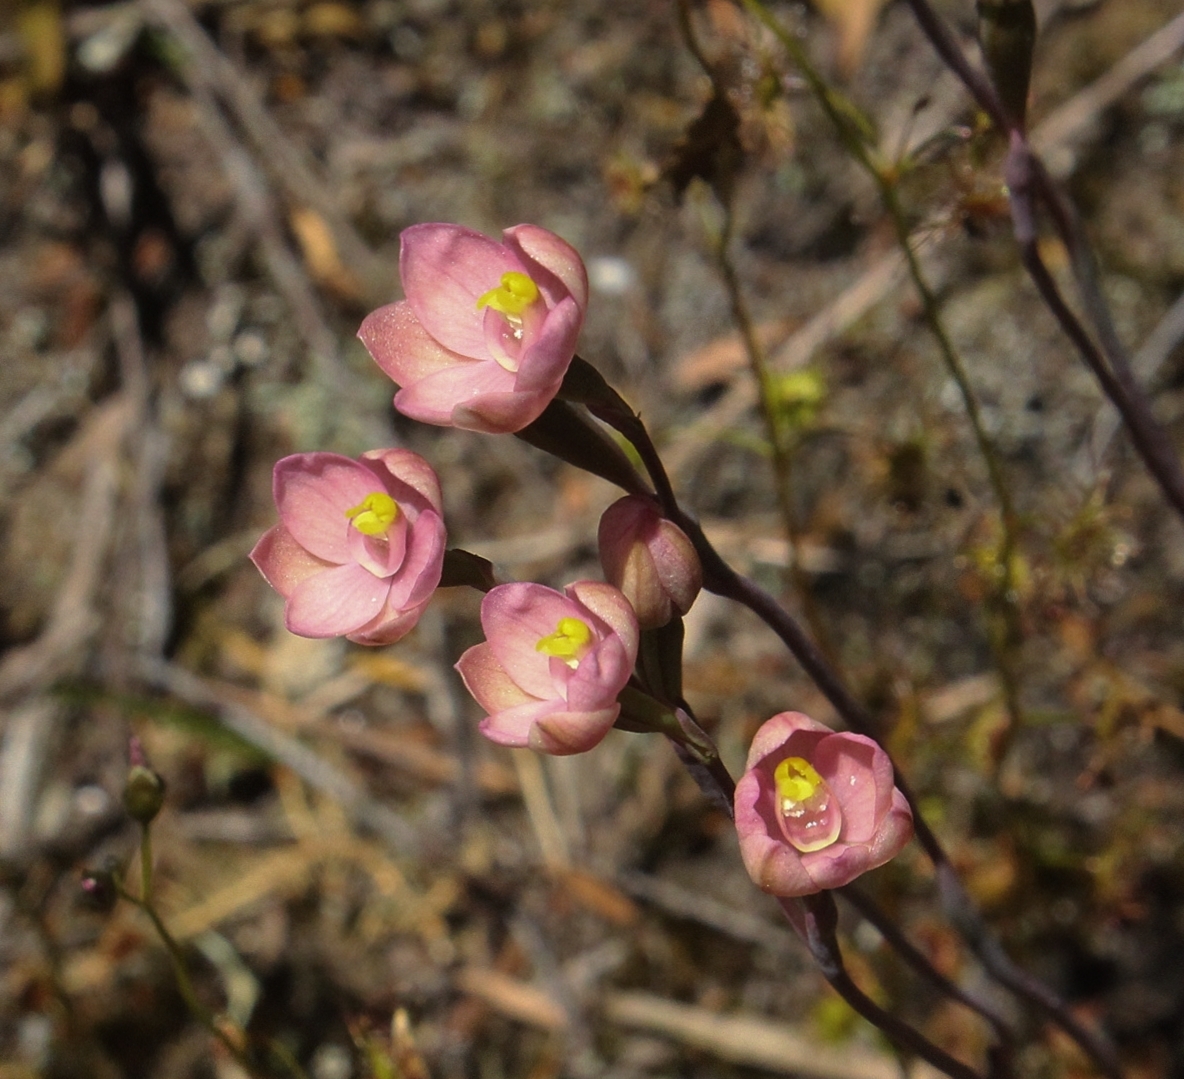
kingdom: Plantae
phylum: Tracheophyta
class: Liliopsida
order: Asparagales
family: Orchidaceae
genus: Thelymitra
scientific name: Thelymitra carnea
